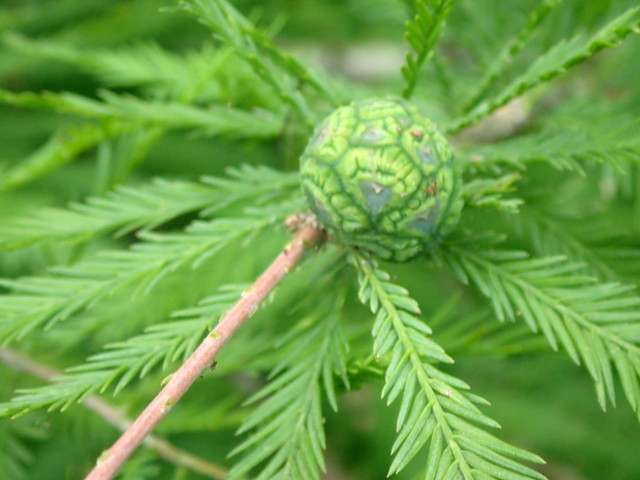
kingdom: Plantae
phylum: Tracheophyta
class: Pinopsida
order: Pinales
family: Cupressaceae
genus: Taxodium
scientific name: Taxodium distichum
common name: Bald cypress
